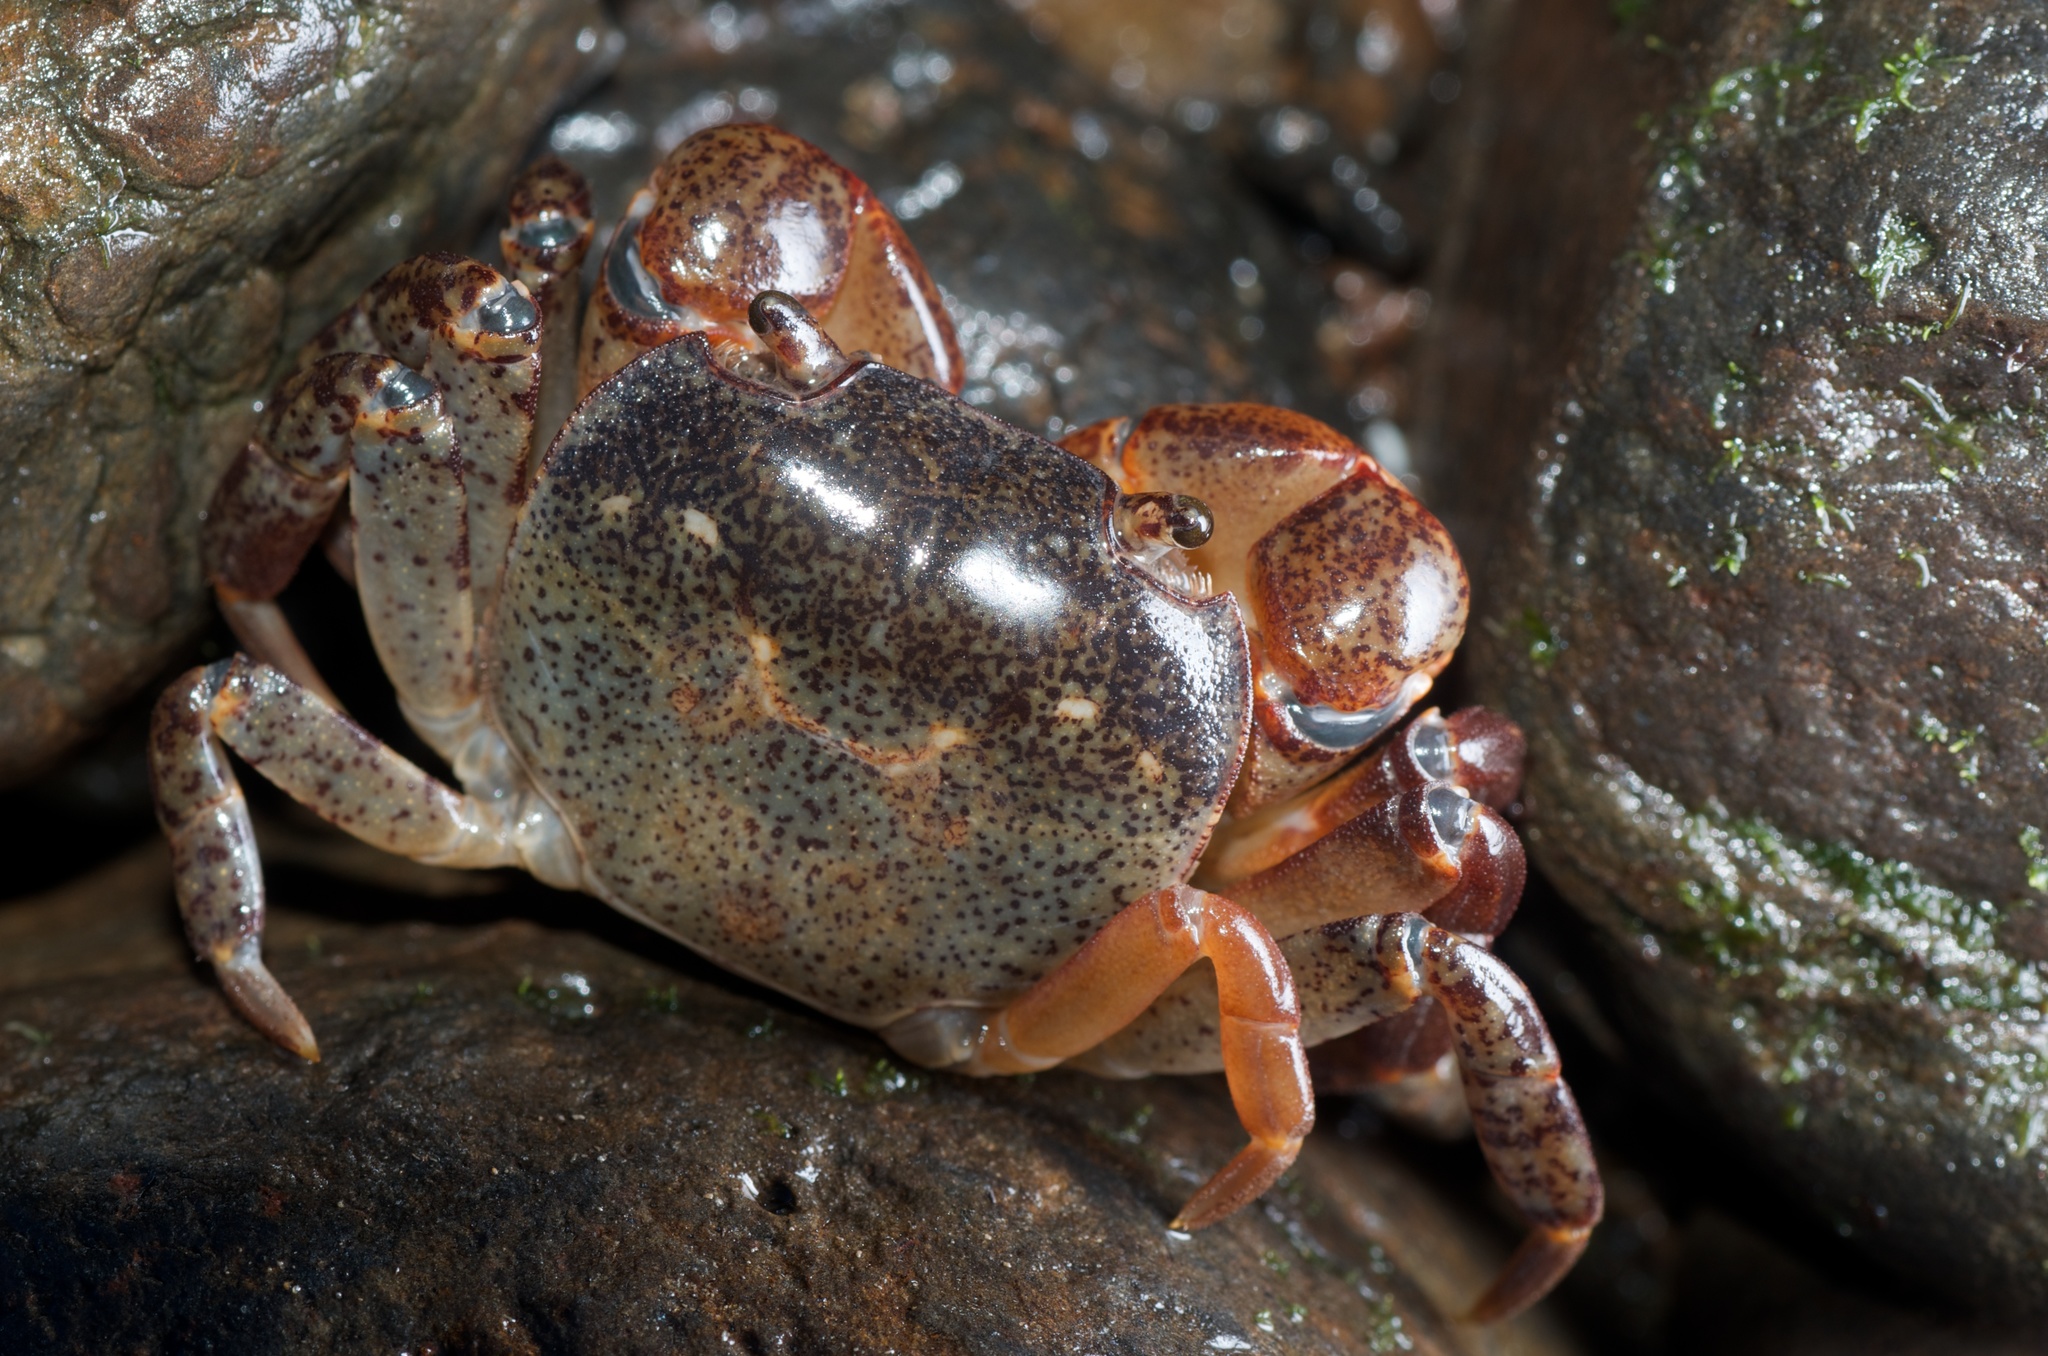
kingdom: Animalia
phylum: Arthropoda
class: Malacostraca
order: Decapoda
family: Varunidae
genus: Cyclograpsus
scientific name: Cyclograpsus lavauxi
